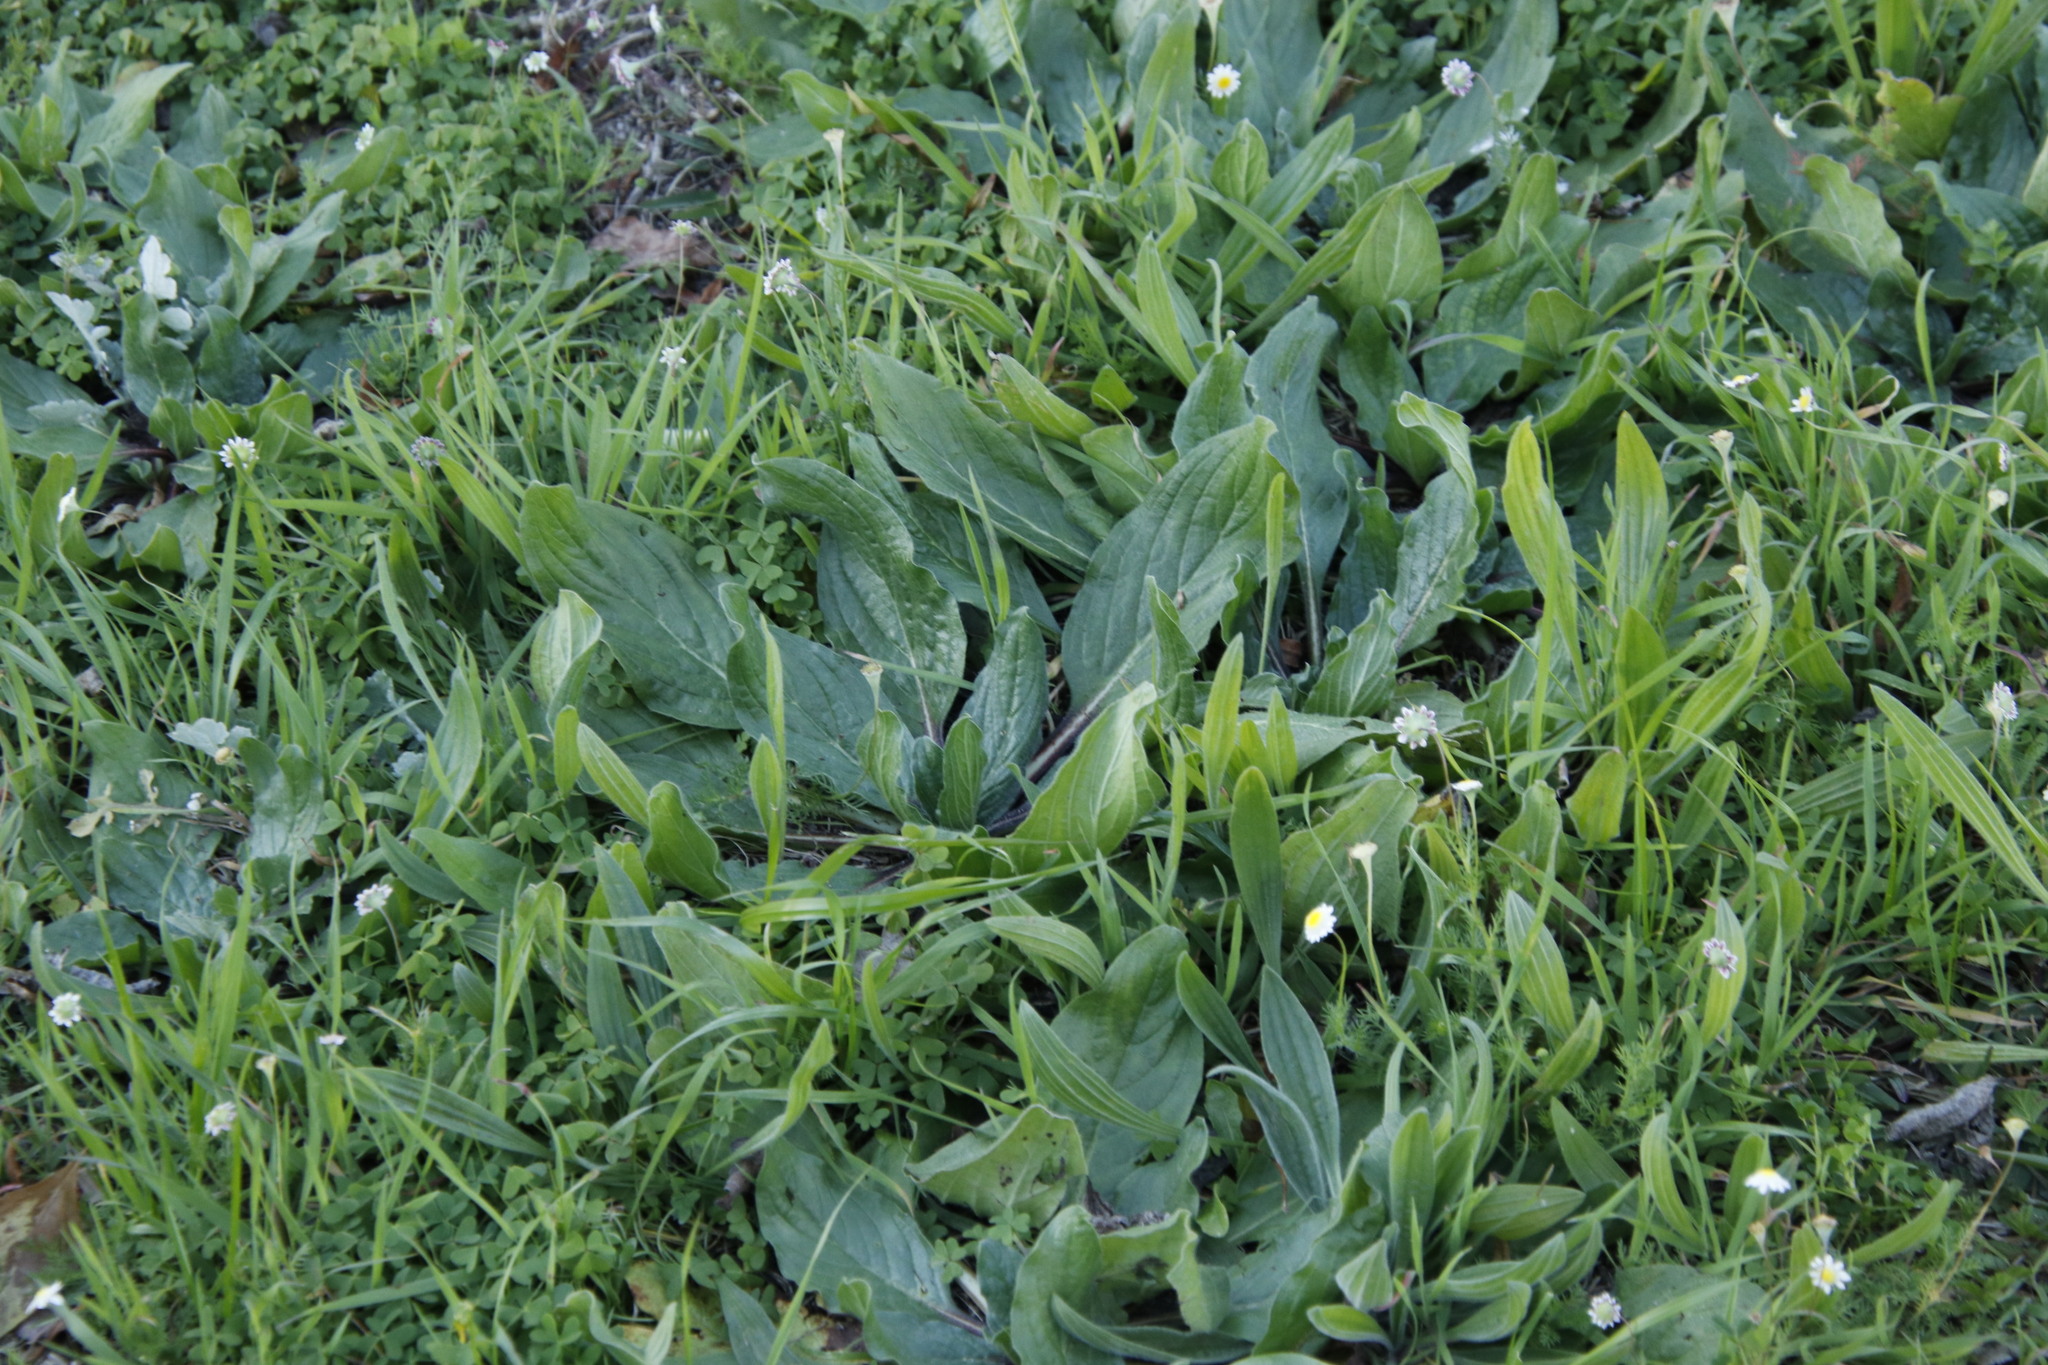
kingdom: Plantae
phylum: Tracheophyta
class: Magnoliopsida
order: Lamiales
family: Plantaginaceae
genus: Plantago
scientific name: Plantago lanceolata
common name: Ribwort plantain
